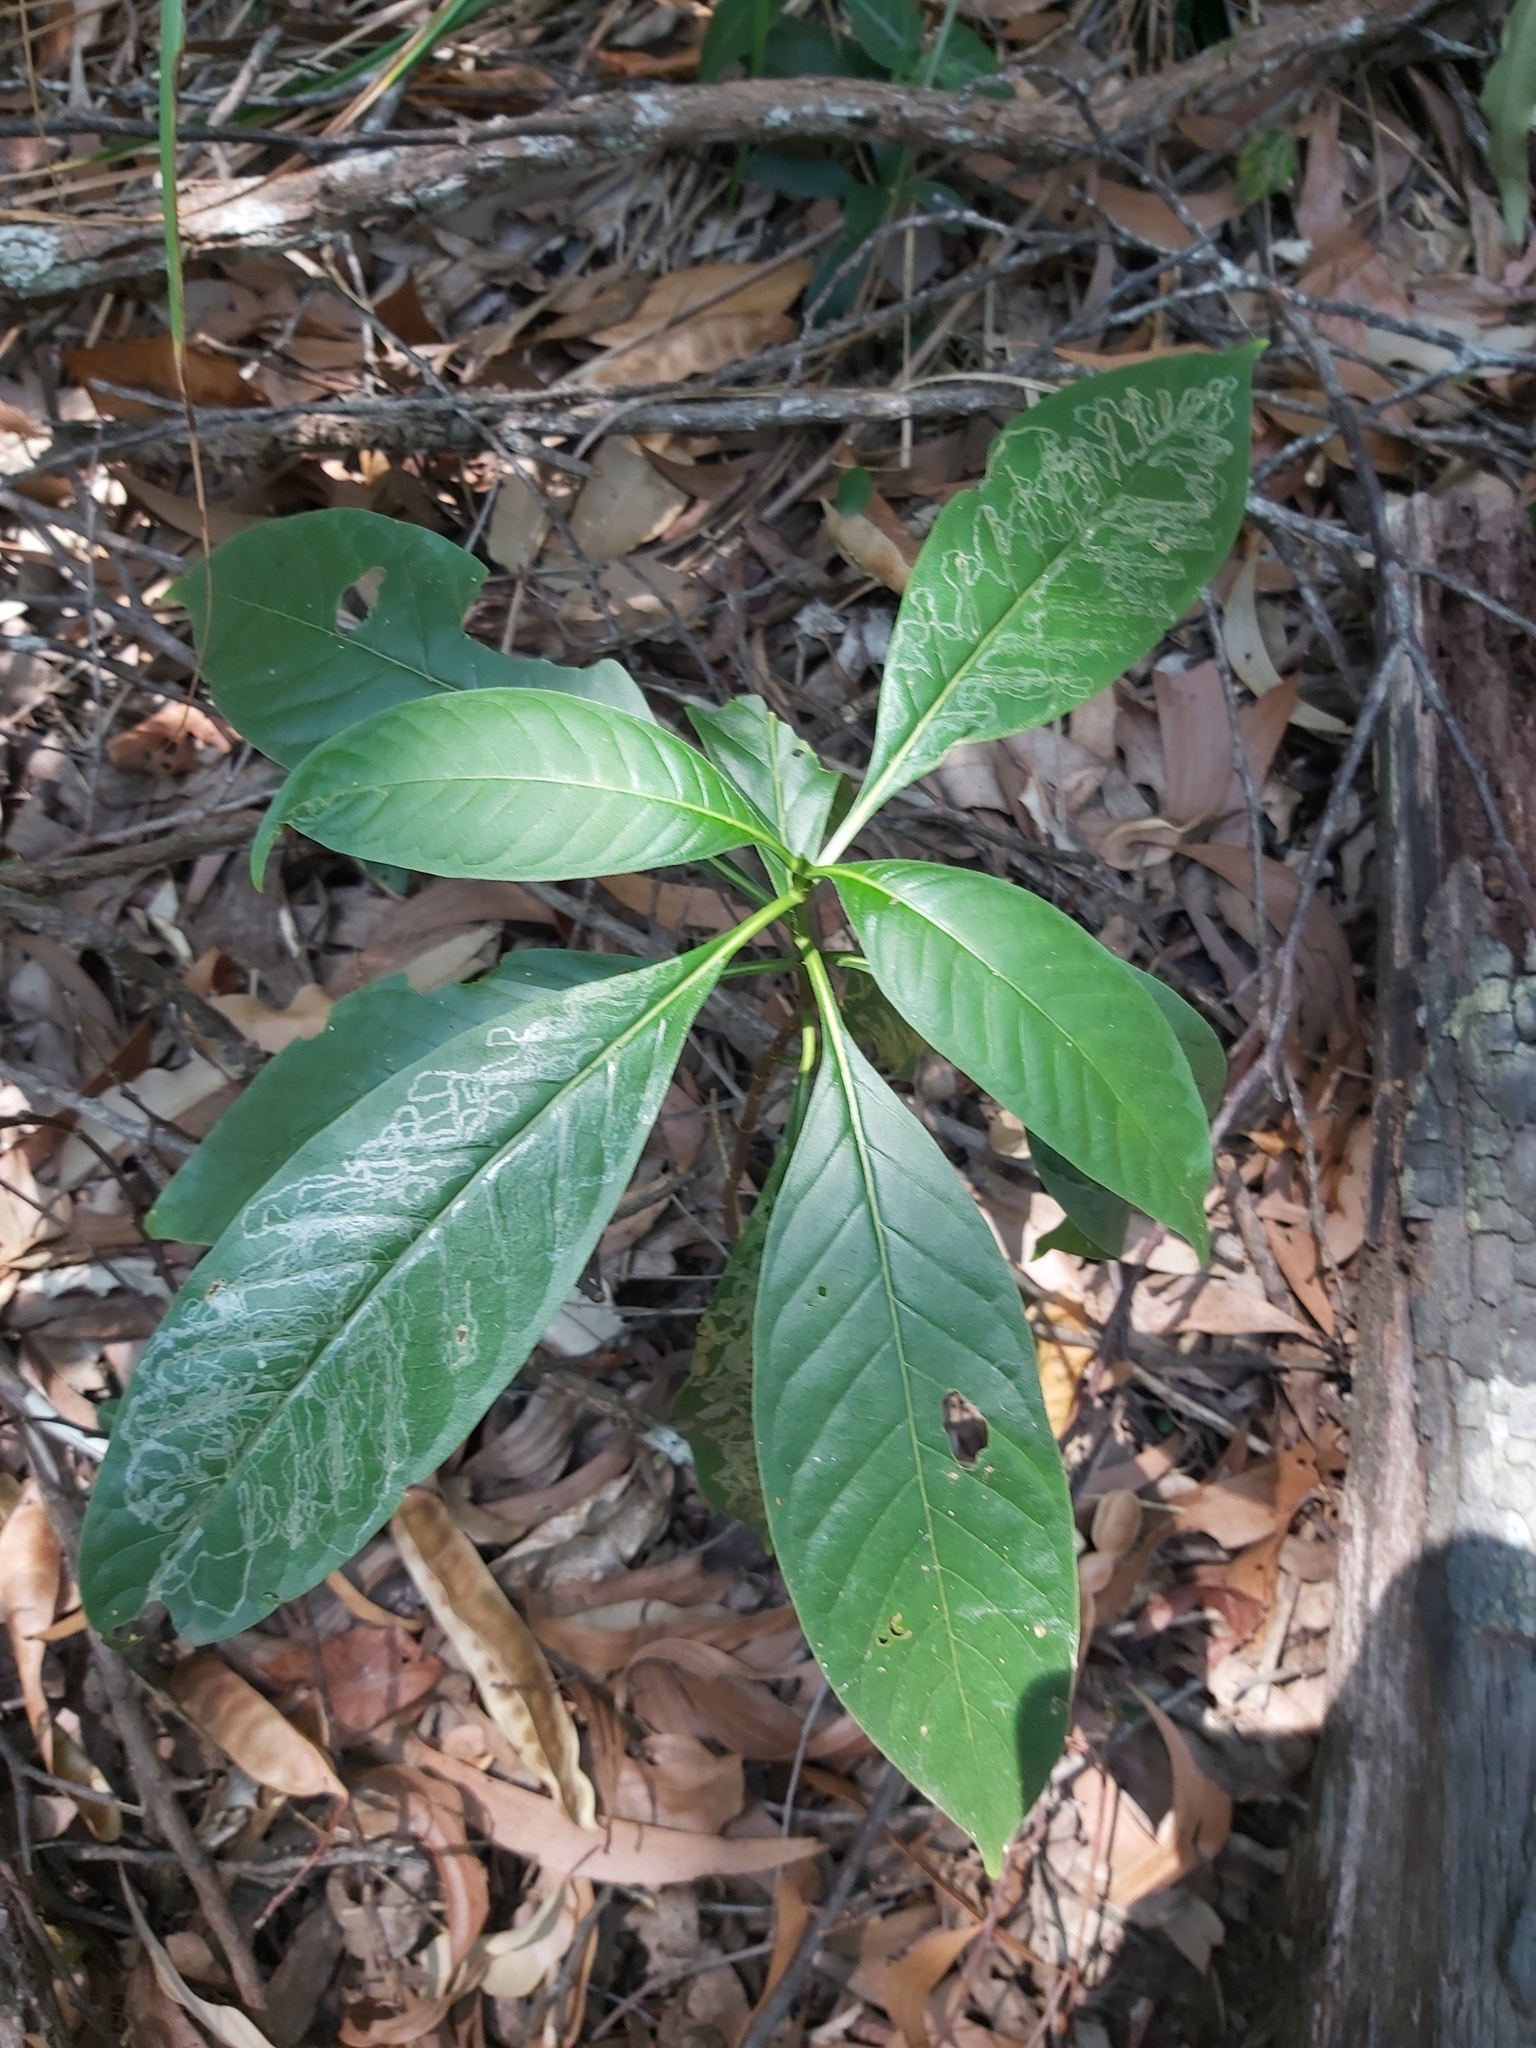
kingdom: Plantae
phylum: Tracheophyta
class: Magnoliopsida
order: Gentianales
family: Rubiaceae
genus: Tarenna
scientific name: Tarenna dallachiana
